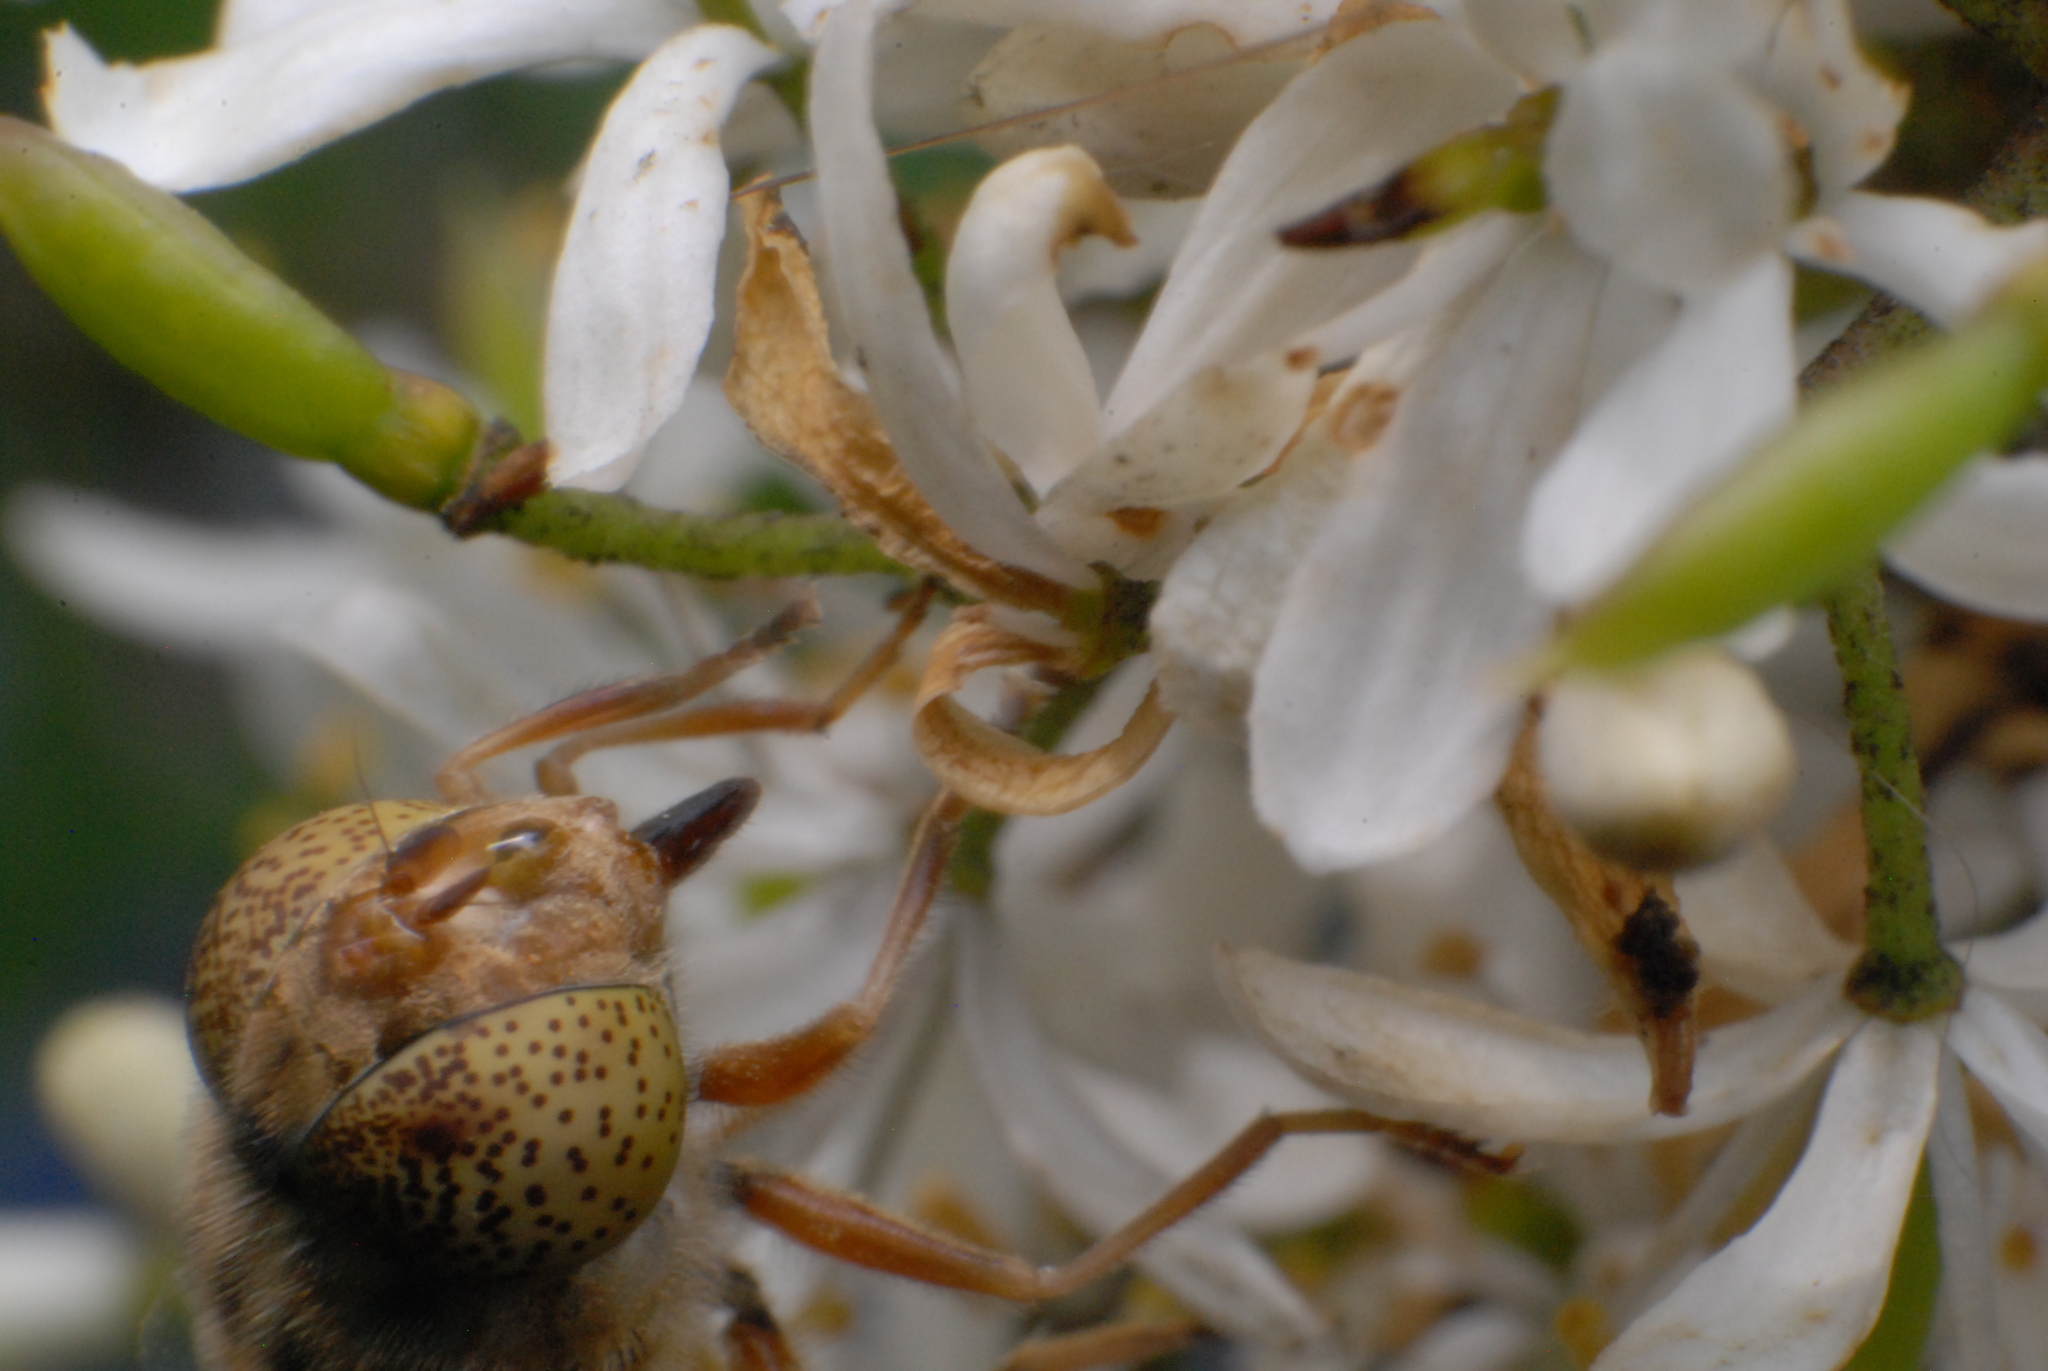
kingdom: Animalia
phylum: Arthropoda
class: Insecta
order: Diptera
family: Syrphidae
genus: Eristalinus
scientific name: Eristalinus punctulatus
